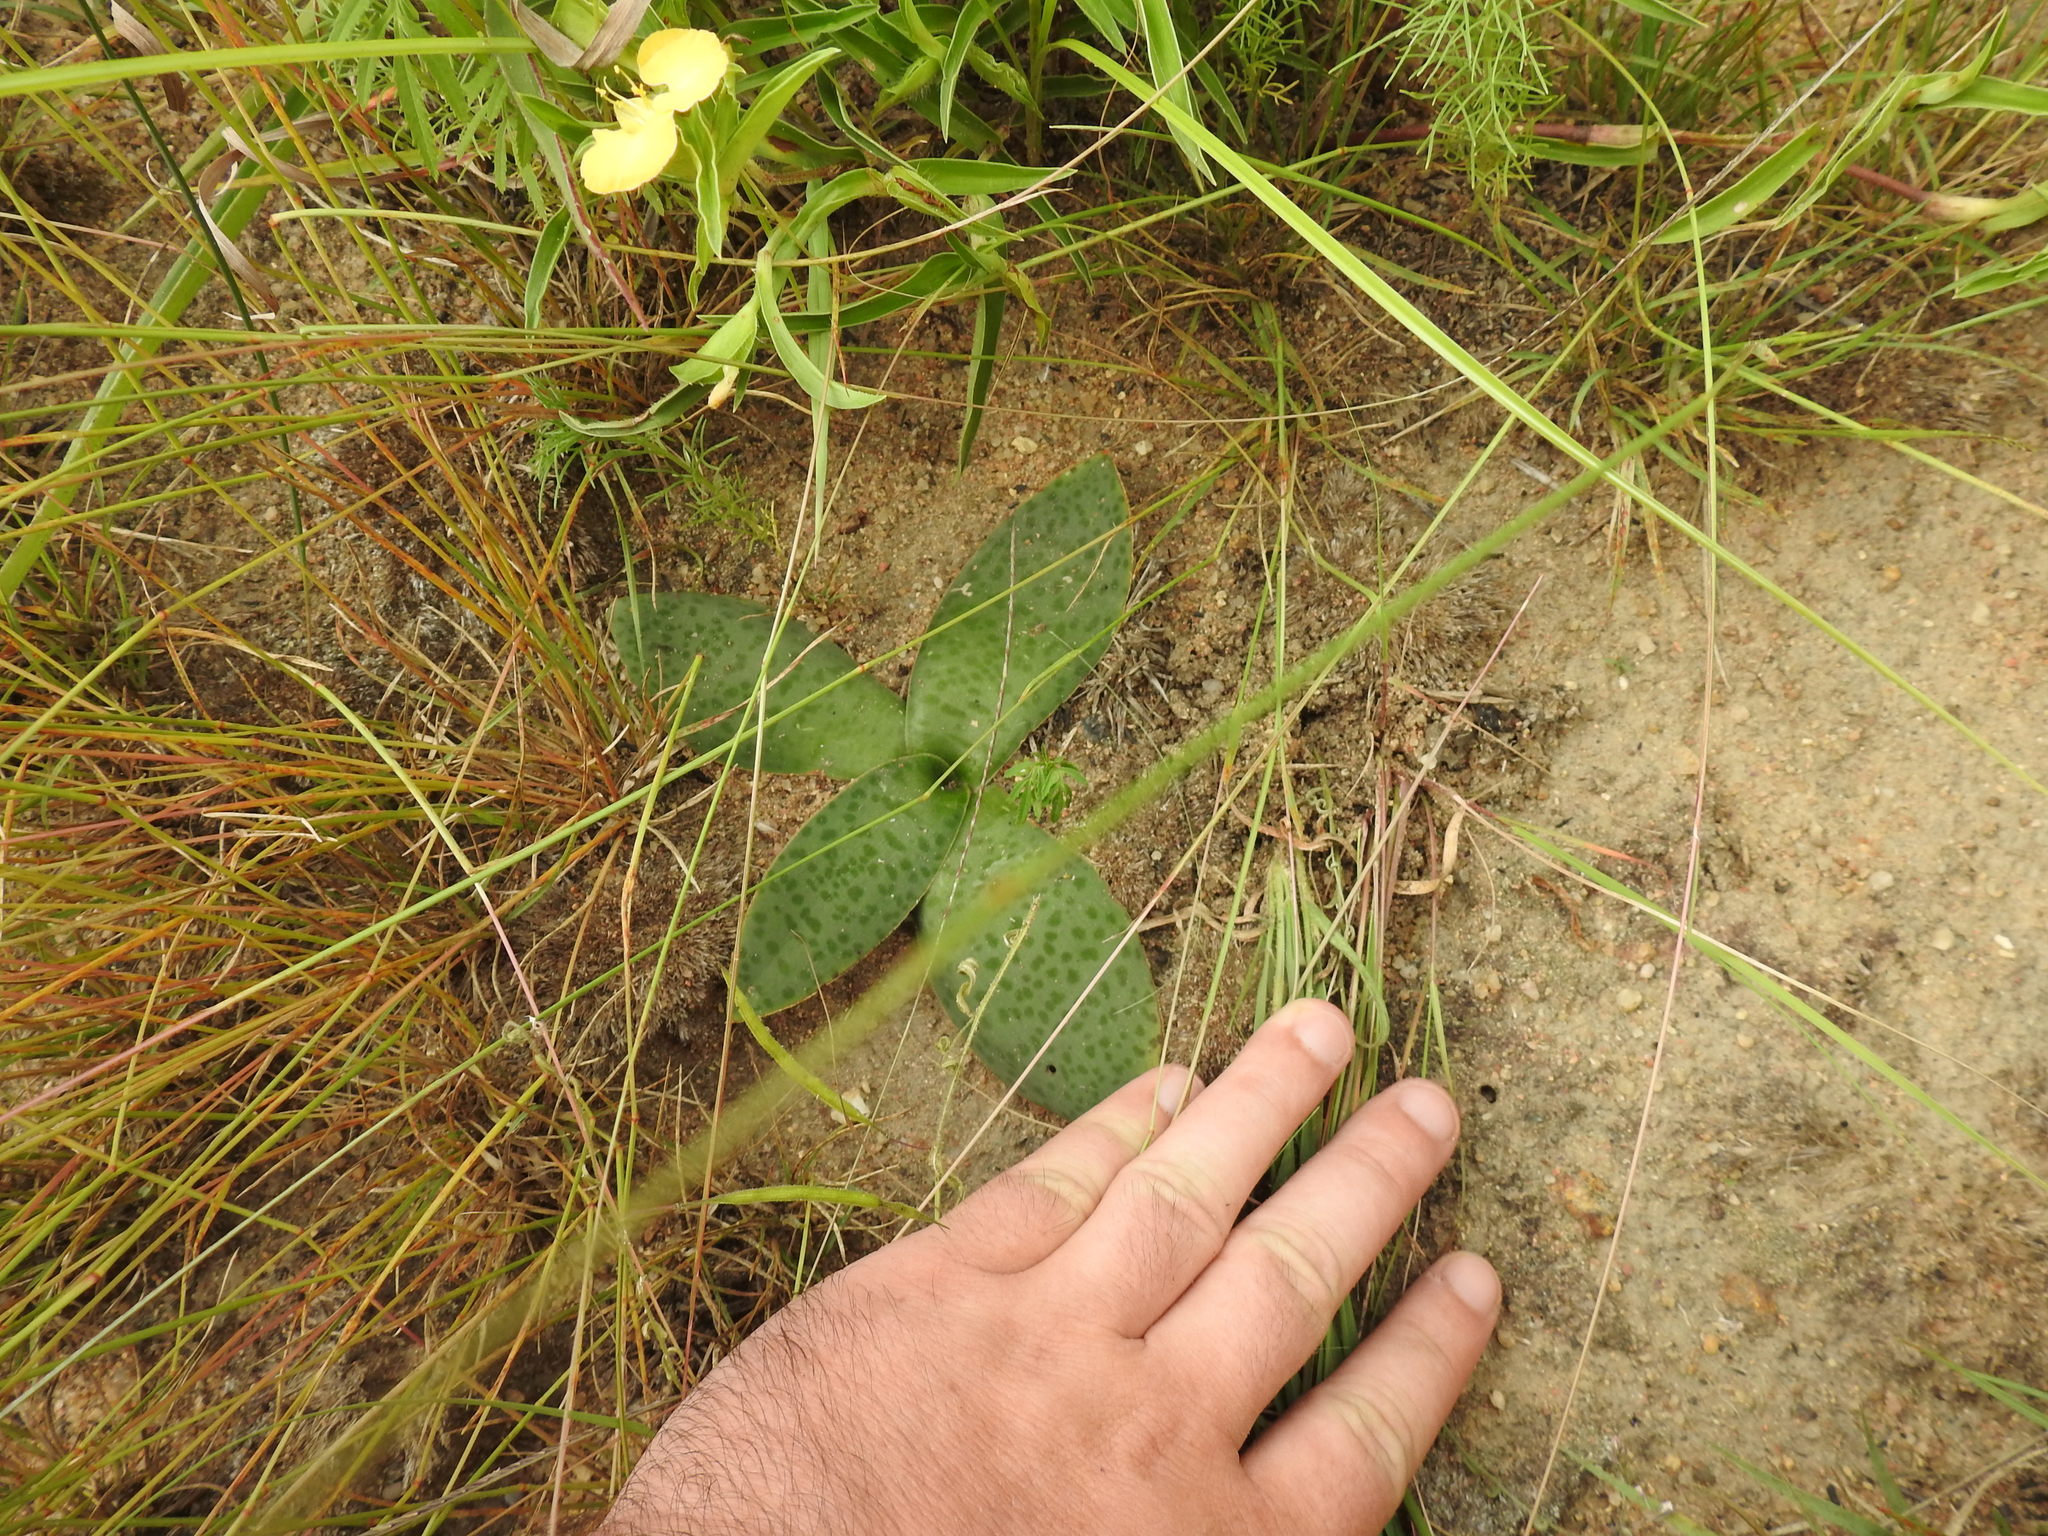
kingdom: Plantae
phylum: Tracheophyta
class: Liliopsida
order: Asparagales
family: Asparagaceae
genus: Ledebouria
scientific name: Ledebouria ovatifolia
